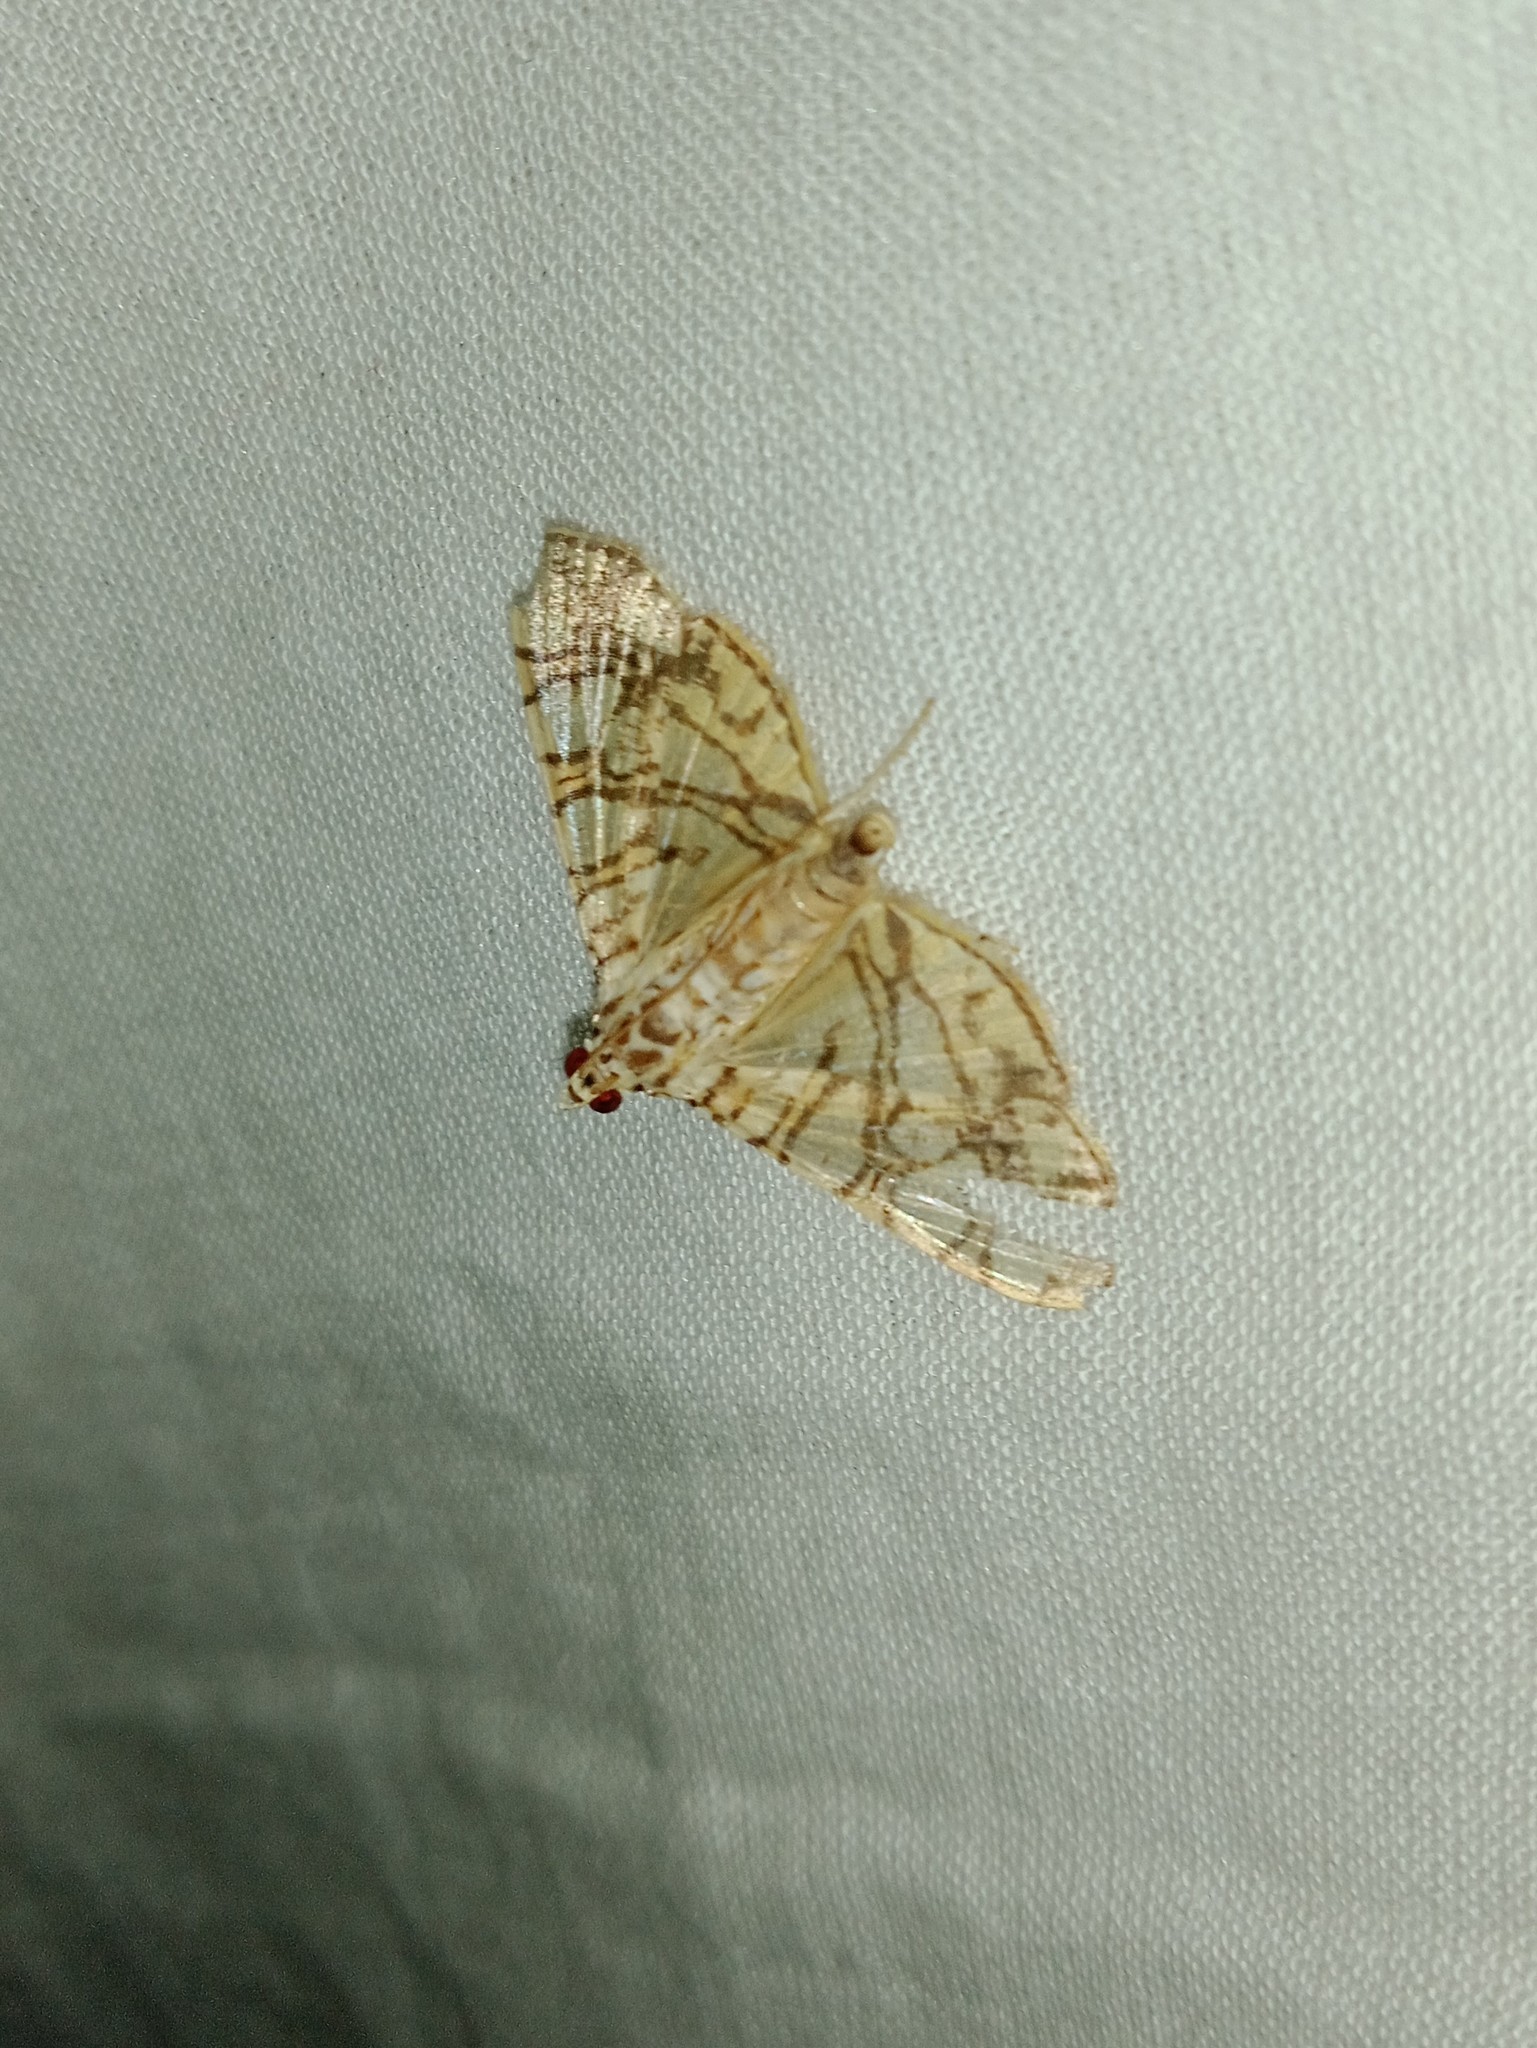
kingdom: Animalia
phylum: Arthropoda
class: Insecta
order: Lepidoptera
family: Crambidae
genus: Glyphodes
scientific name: Glyphodes caesalis
